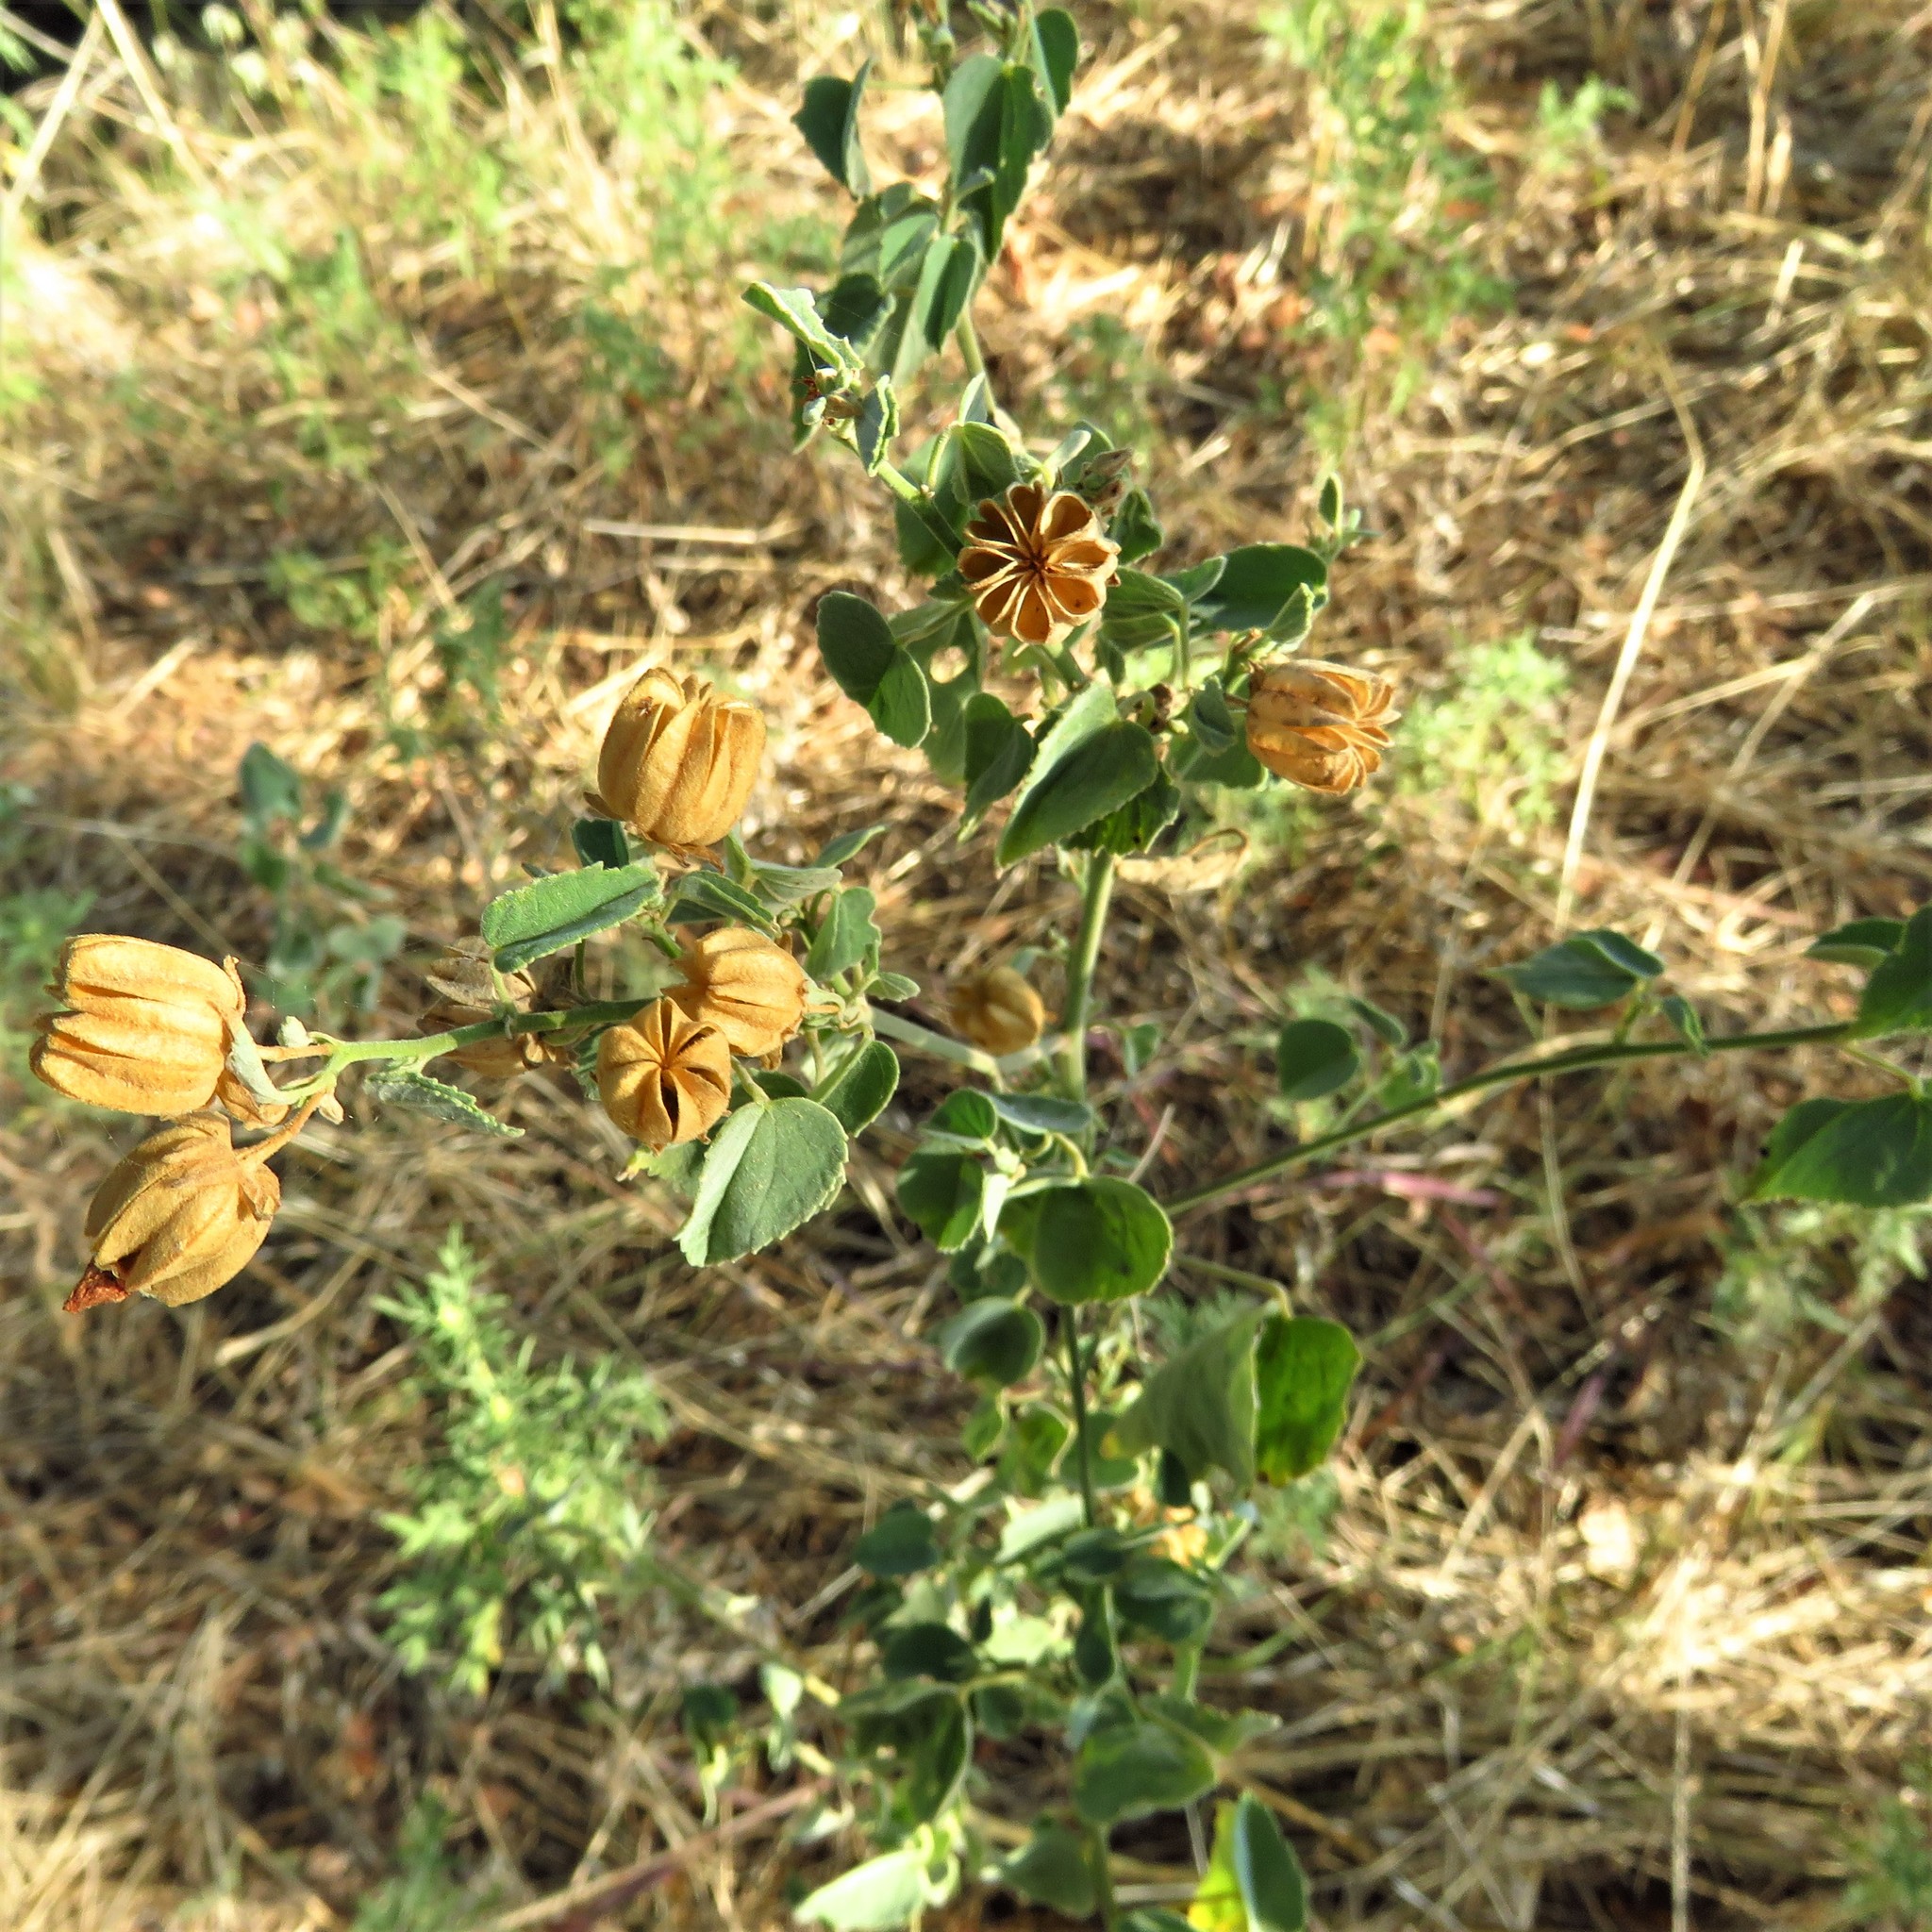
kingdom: Plantae
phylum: Tracheophyta
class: Magnoliopsida
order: Malvales
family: Malvaceae
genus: Abutilon
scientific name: Abutilon fruticosum
